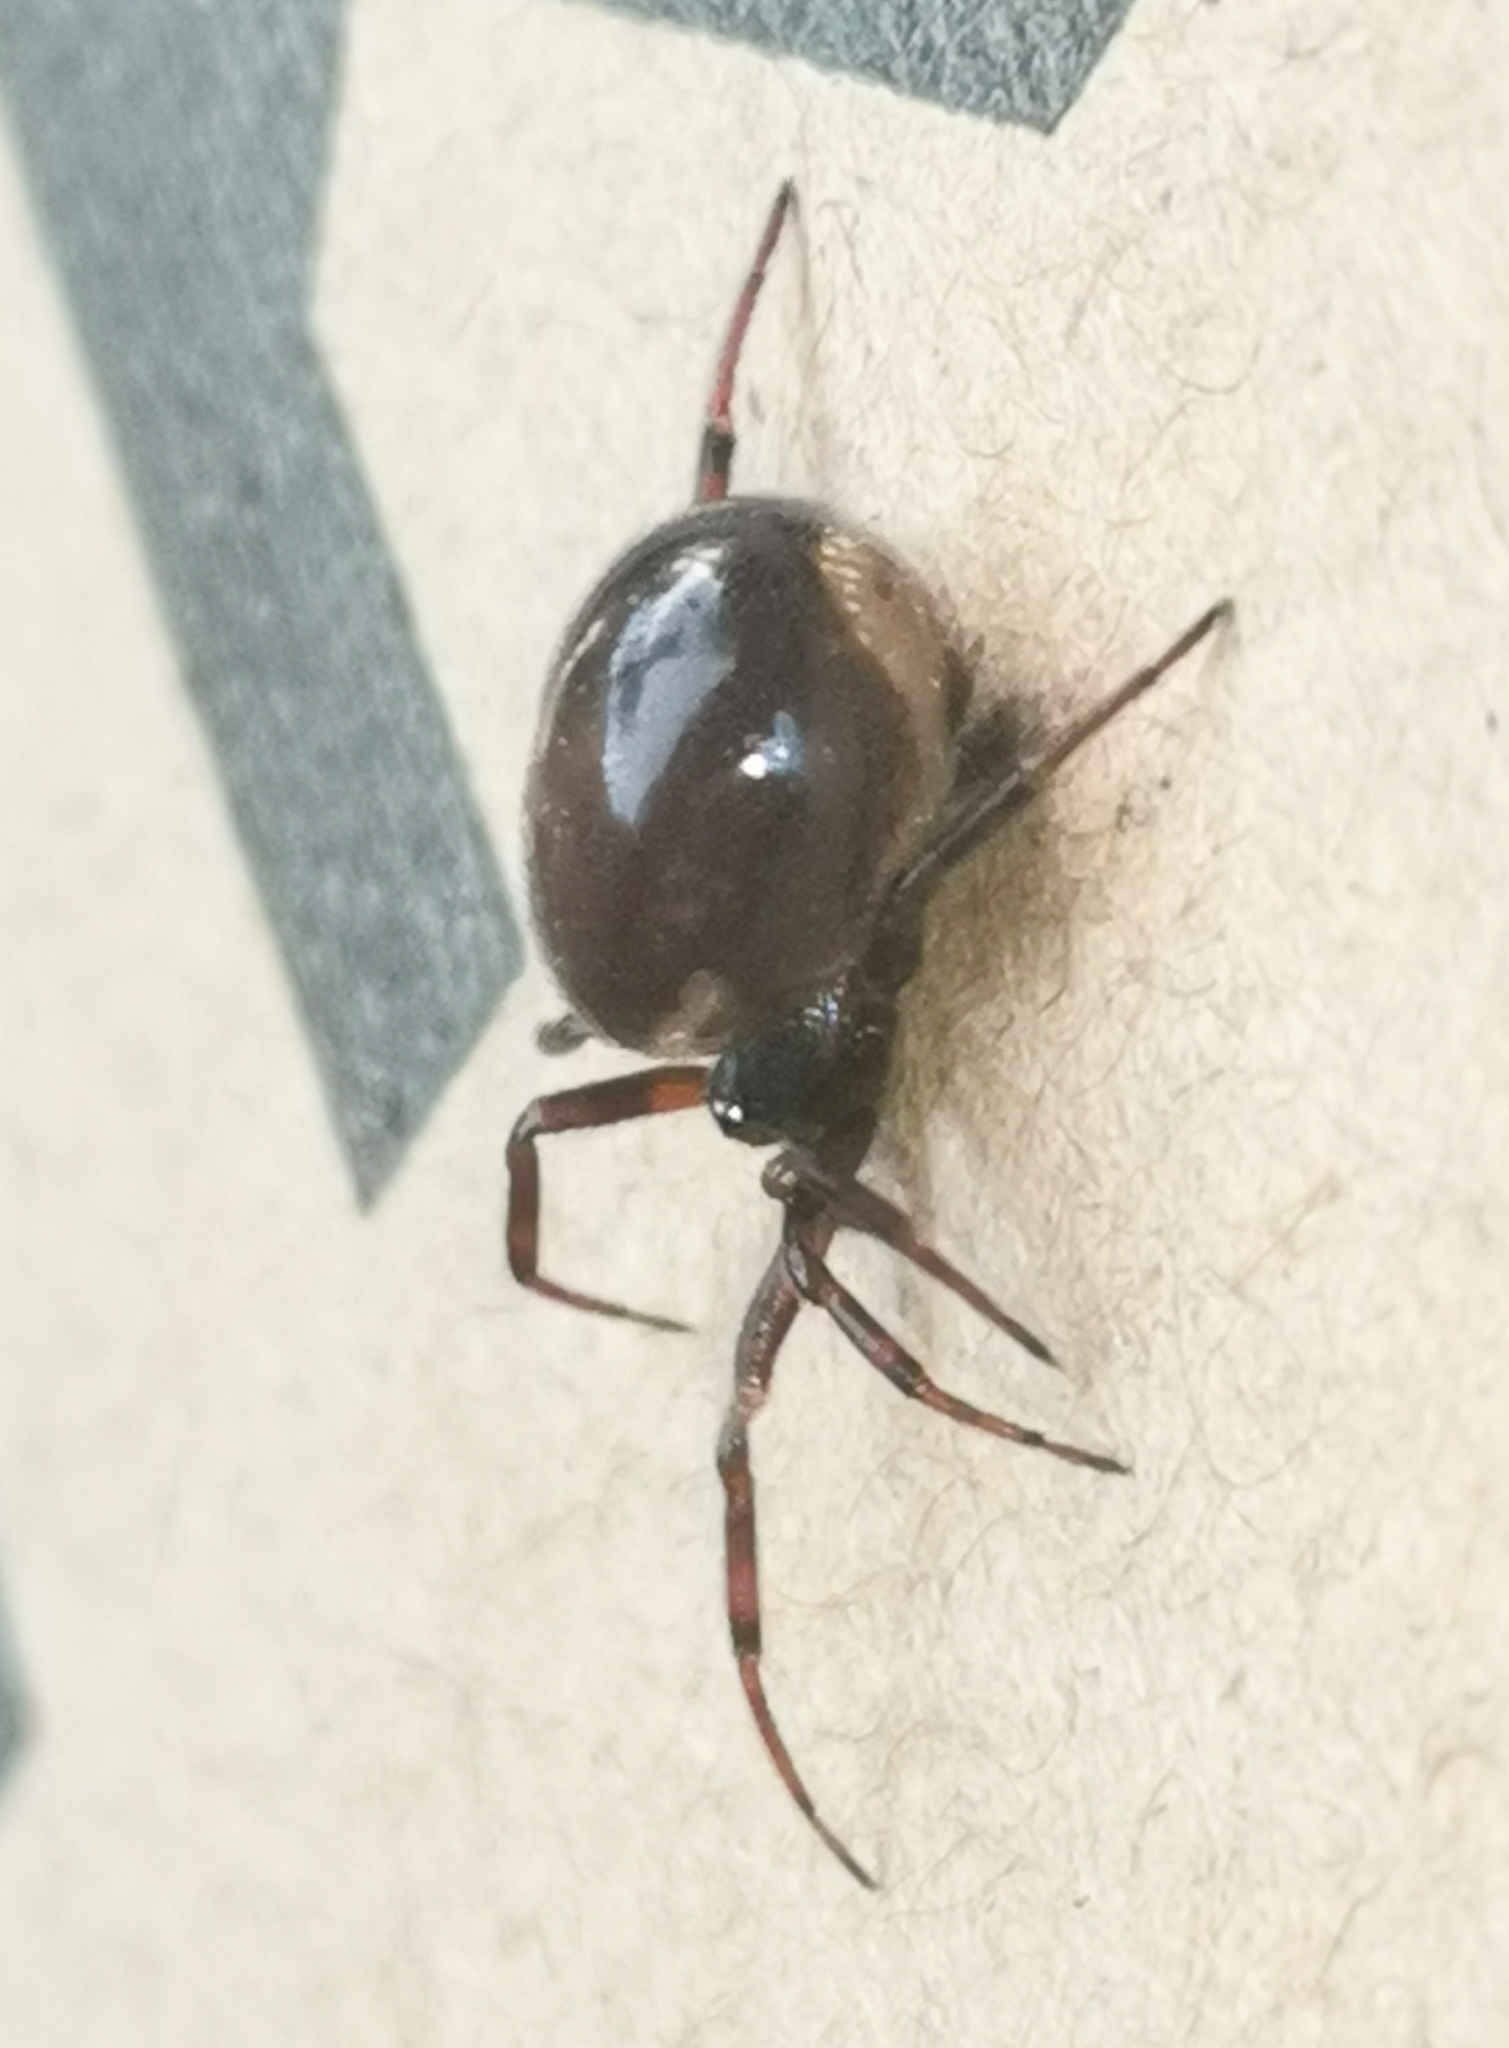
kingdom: Animalia
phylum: Arthropoda
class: Arachnida
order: Araneae
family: Theridiidae
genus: Steatoda
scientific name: Steatoda bipunctata
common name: False widow
